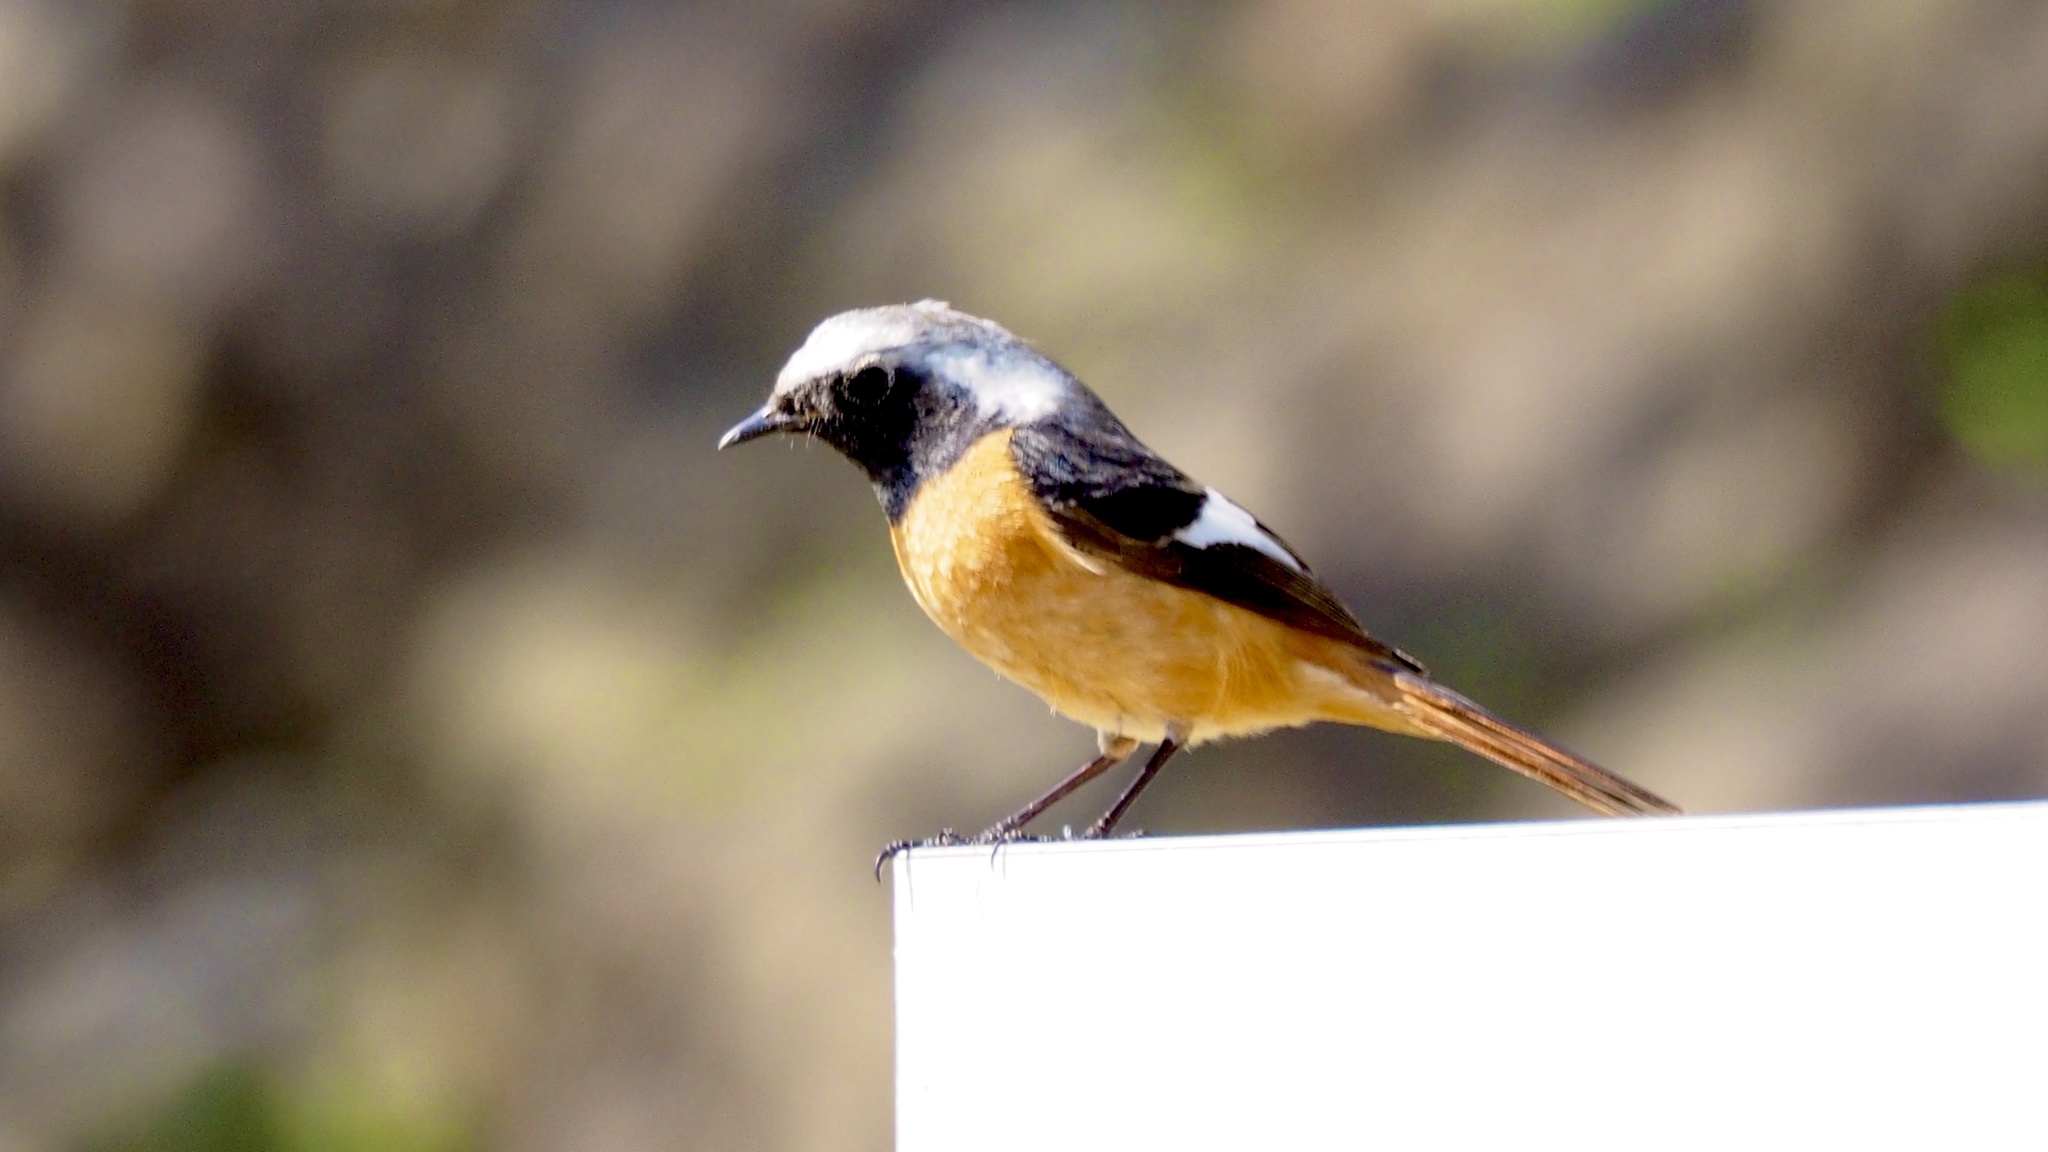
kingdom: Animalia
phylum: Chordata
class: Aves
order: Passeriformes
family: Muscicapidae
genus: Phoenicurus
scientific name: Phoenicurus auroreus
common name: Daurian redstart
